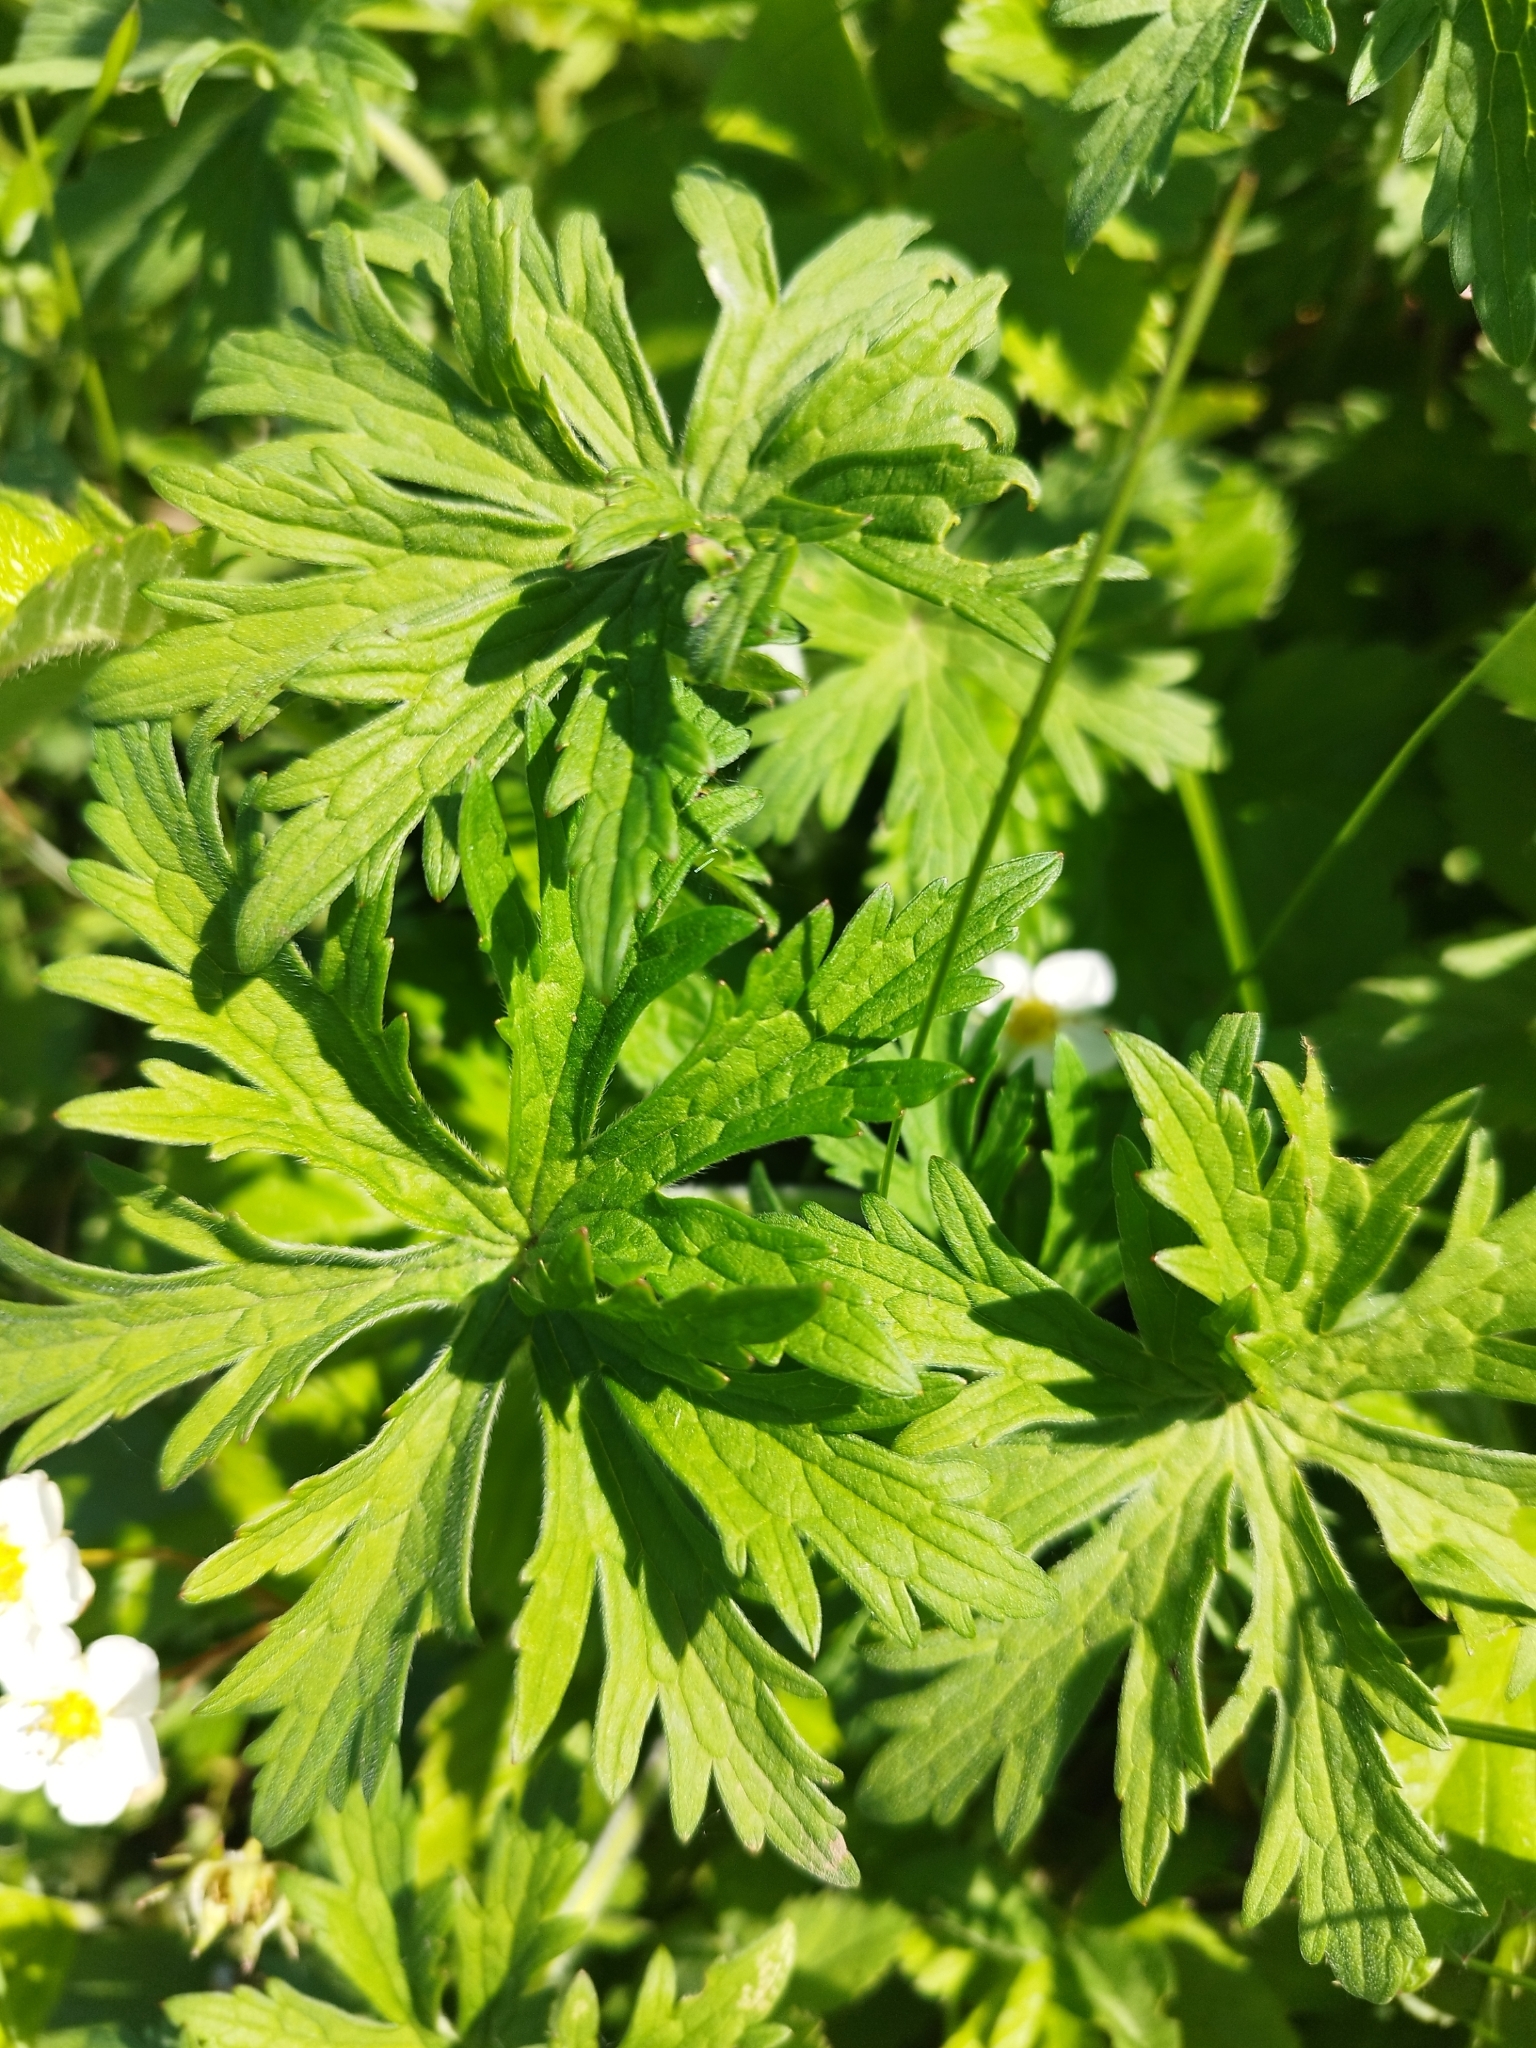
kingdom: Plantae
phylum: Tracheophyta
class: Magnoliopsida
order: Geraniales
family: Geraniaceae
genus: Geranium
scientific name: Geranium pratense
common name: Meadow crane's-bill
